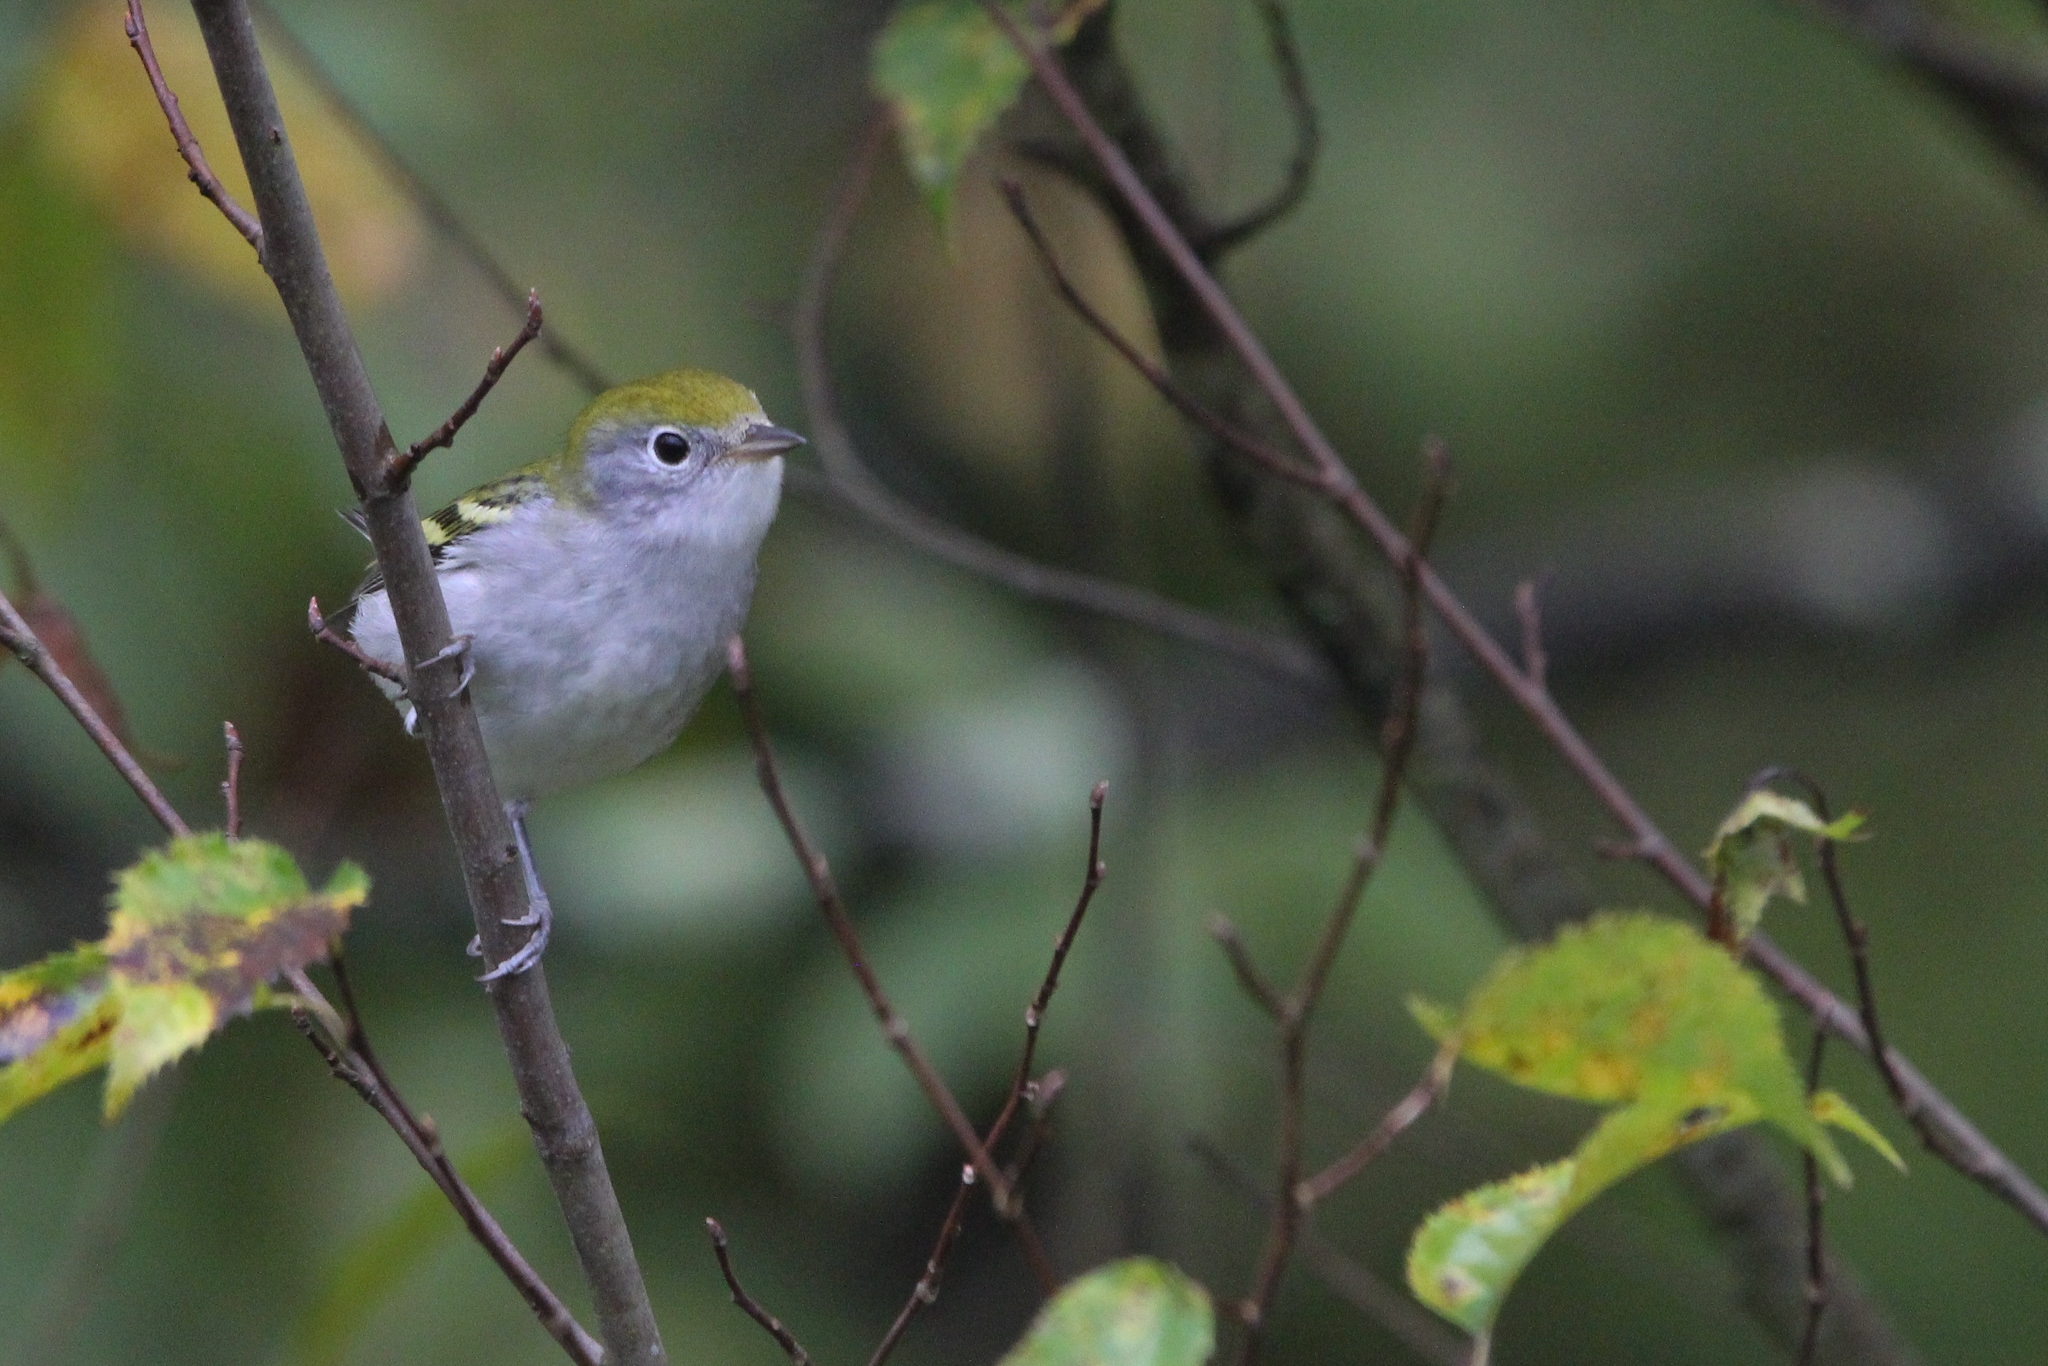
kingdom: Animalia
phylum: Chordata
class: Aves
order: Passeriformes
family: Parulidae
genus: Setophaga
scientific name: Setophaga pensylvanica
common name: Chestnut-sided warbler
